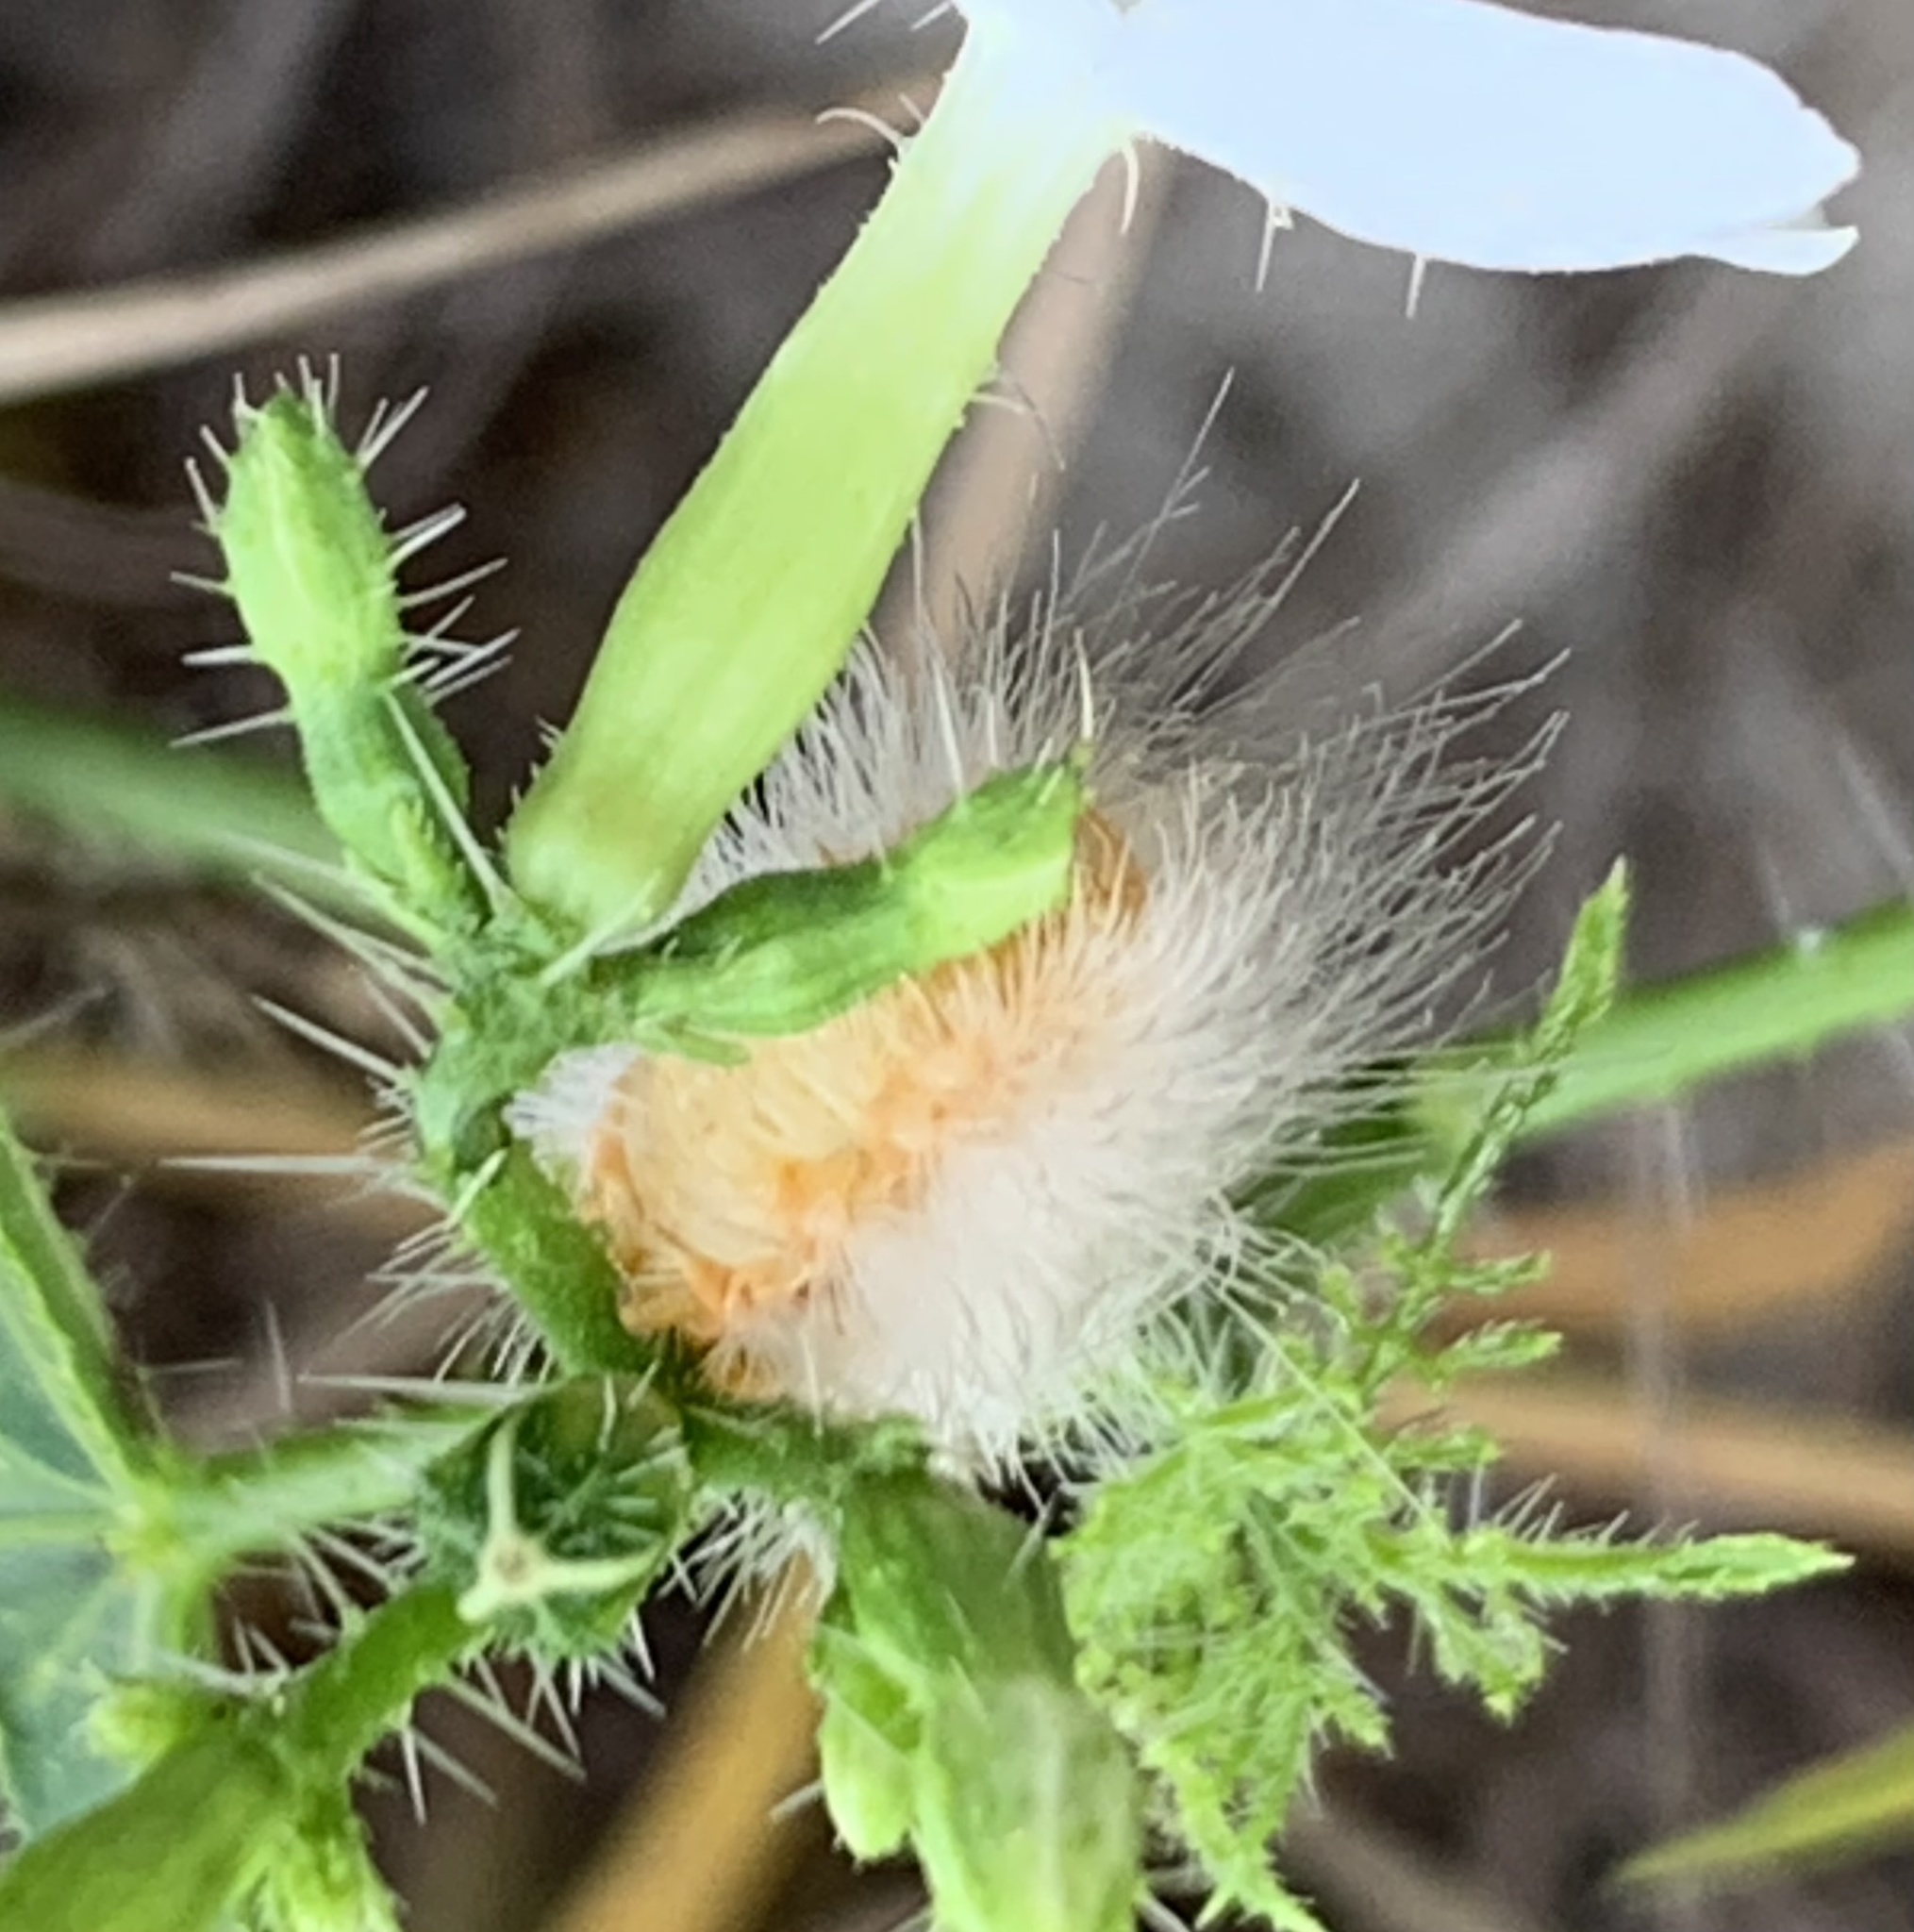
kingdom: Animalia
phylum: Arthropoda
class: Insecta
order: Lepidoptera
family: Erebidae
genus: Pygarctia
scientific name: Pygarctia abdominalis
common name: Yellow-edged pygarctia moth
